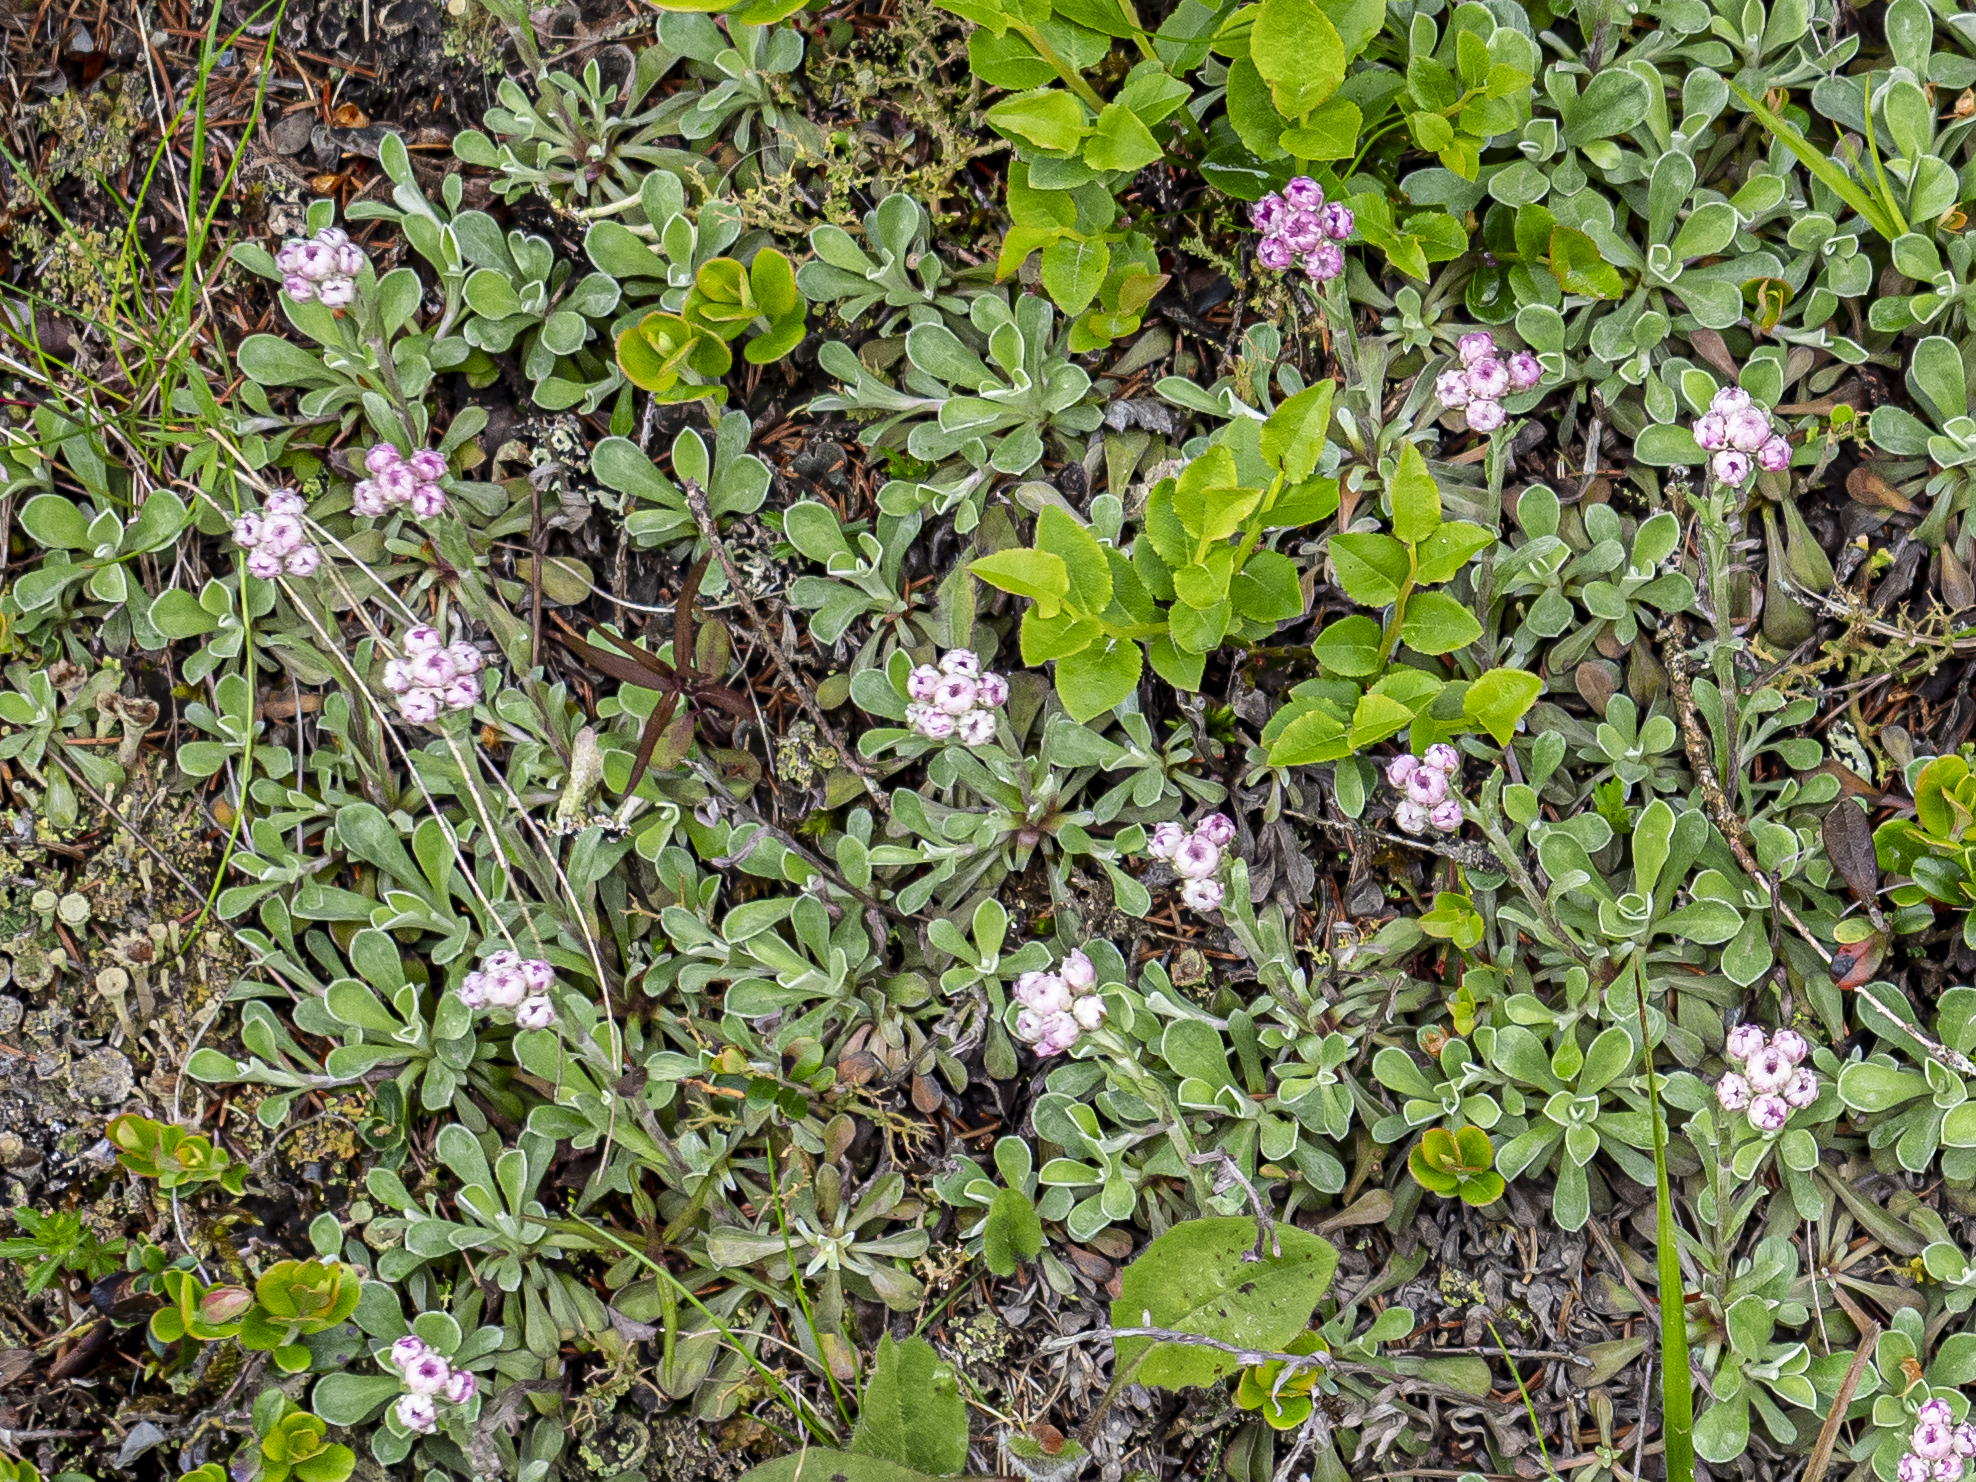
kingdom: Plantae
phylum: Tracheophyta
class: Magnoliopsida
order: Asterales
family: Asteraceae
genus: Antennaria
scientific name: Antennaria dioica
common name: Mountain everlasting
